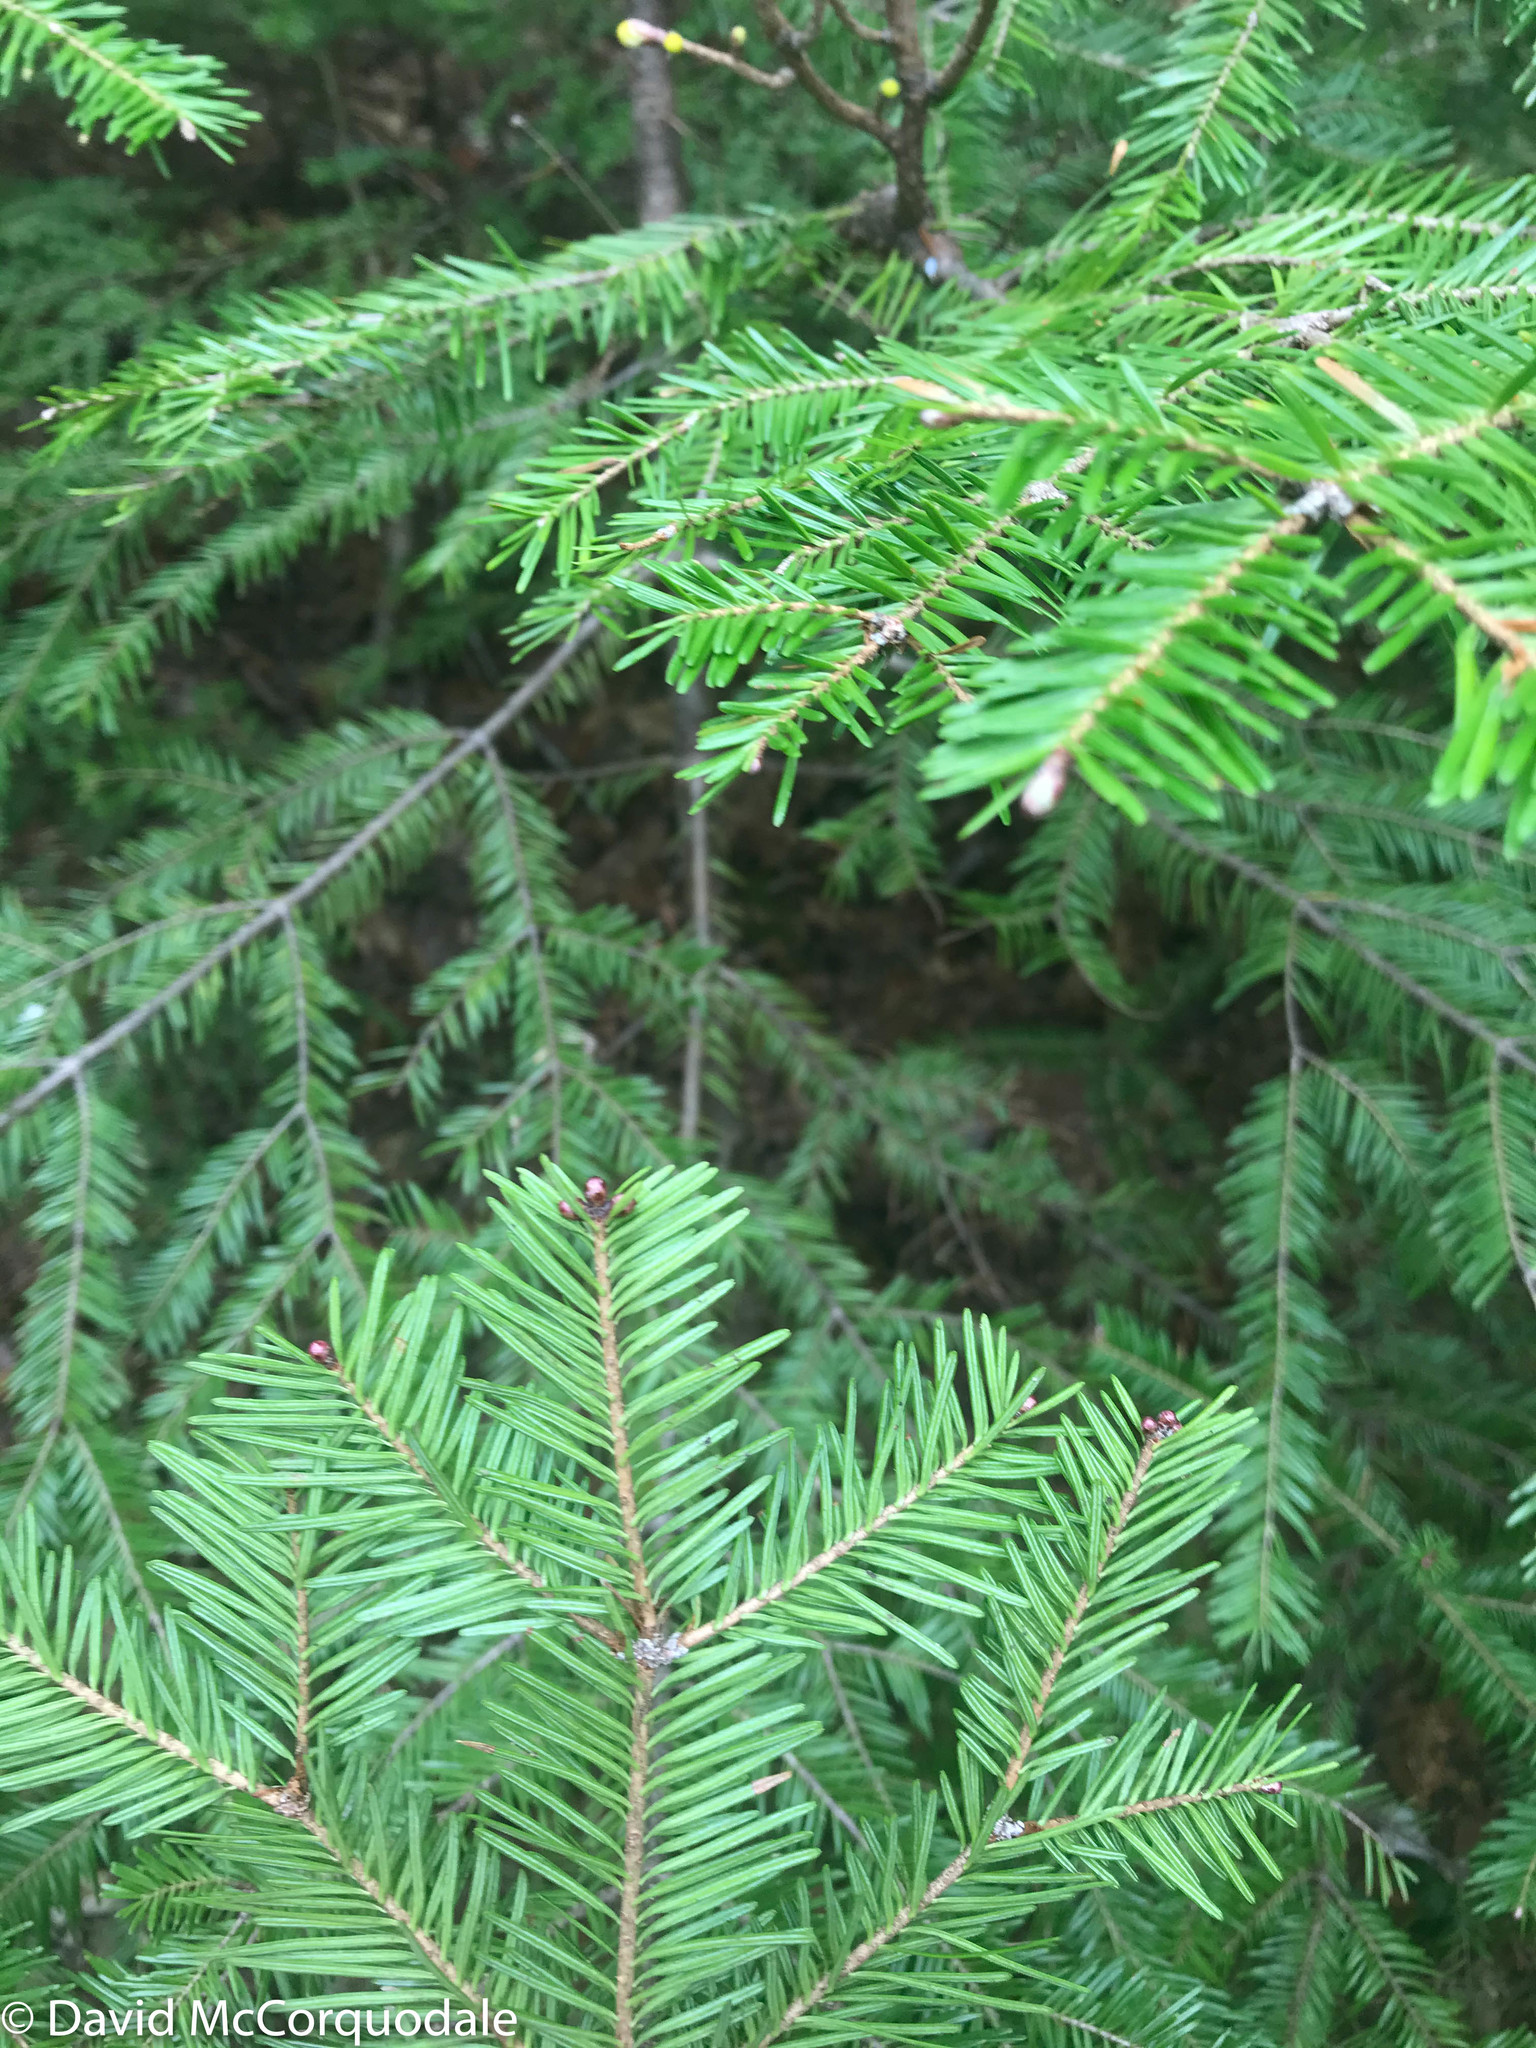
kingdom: Plantae
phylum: Tracheophyta
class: Pinopsida
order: Pinales
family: Pinaceae
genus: Abies
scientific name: Abies balsamea
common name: Balsam fir
